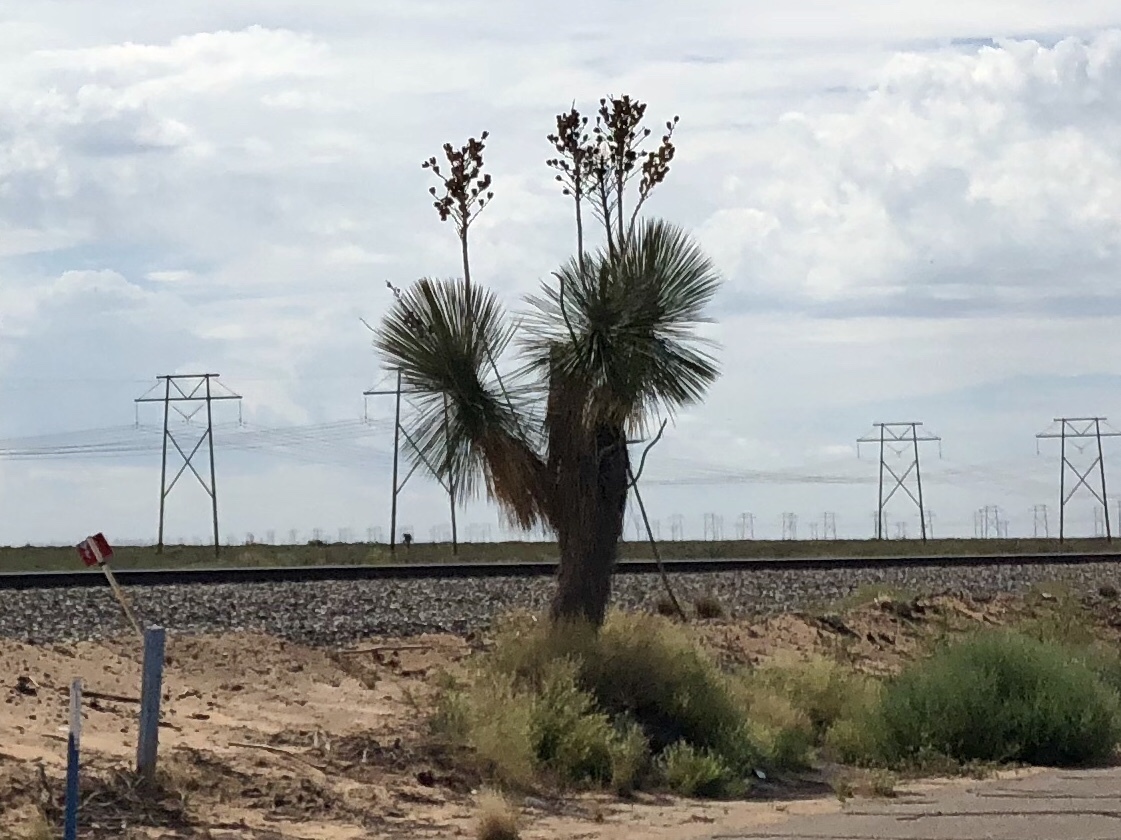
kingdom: Plantae
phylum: Tracheophyta
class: Liliopsida
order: Asparagales
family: Asparagaceae
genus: Yucca
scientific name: Yucca elata
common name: Palmella
